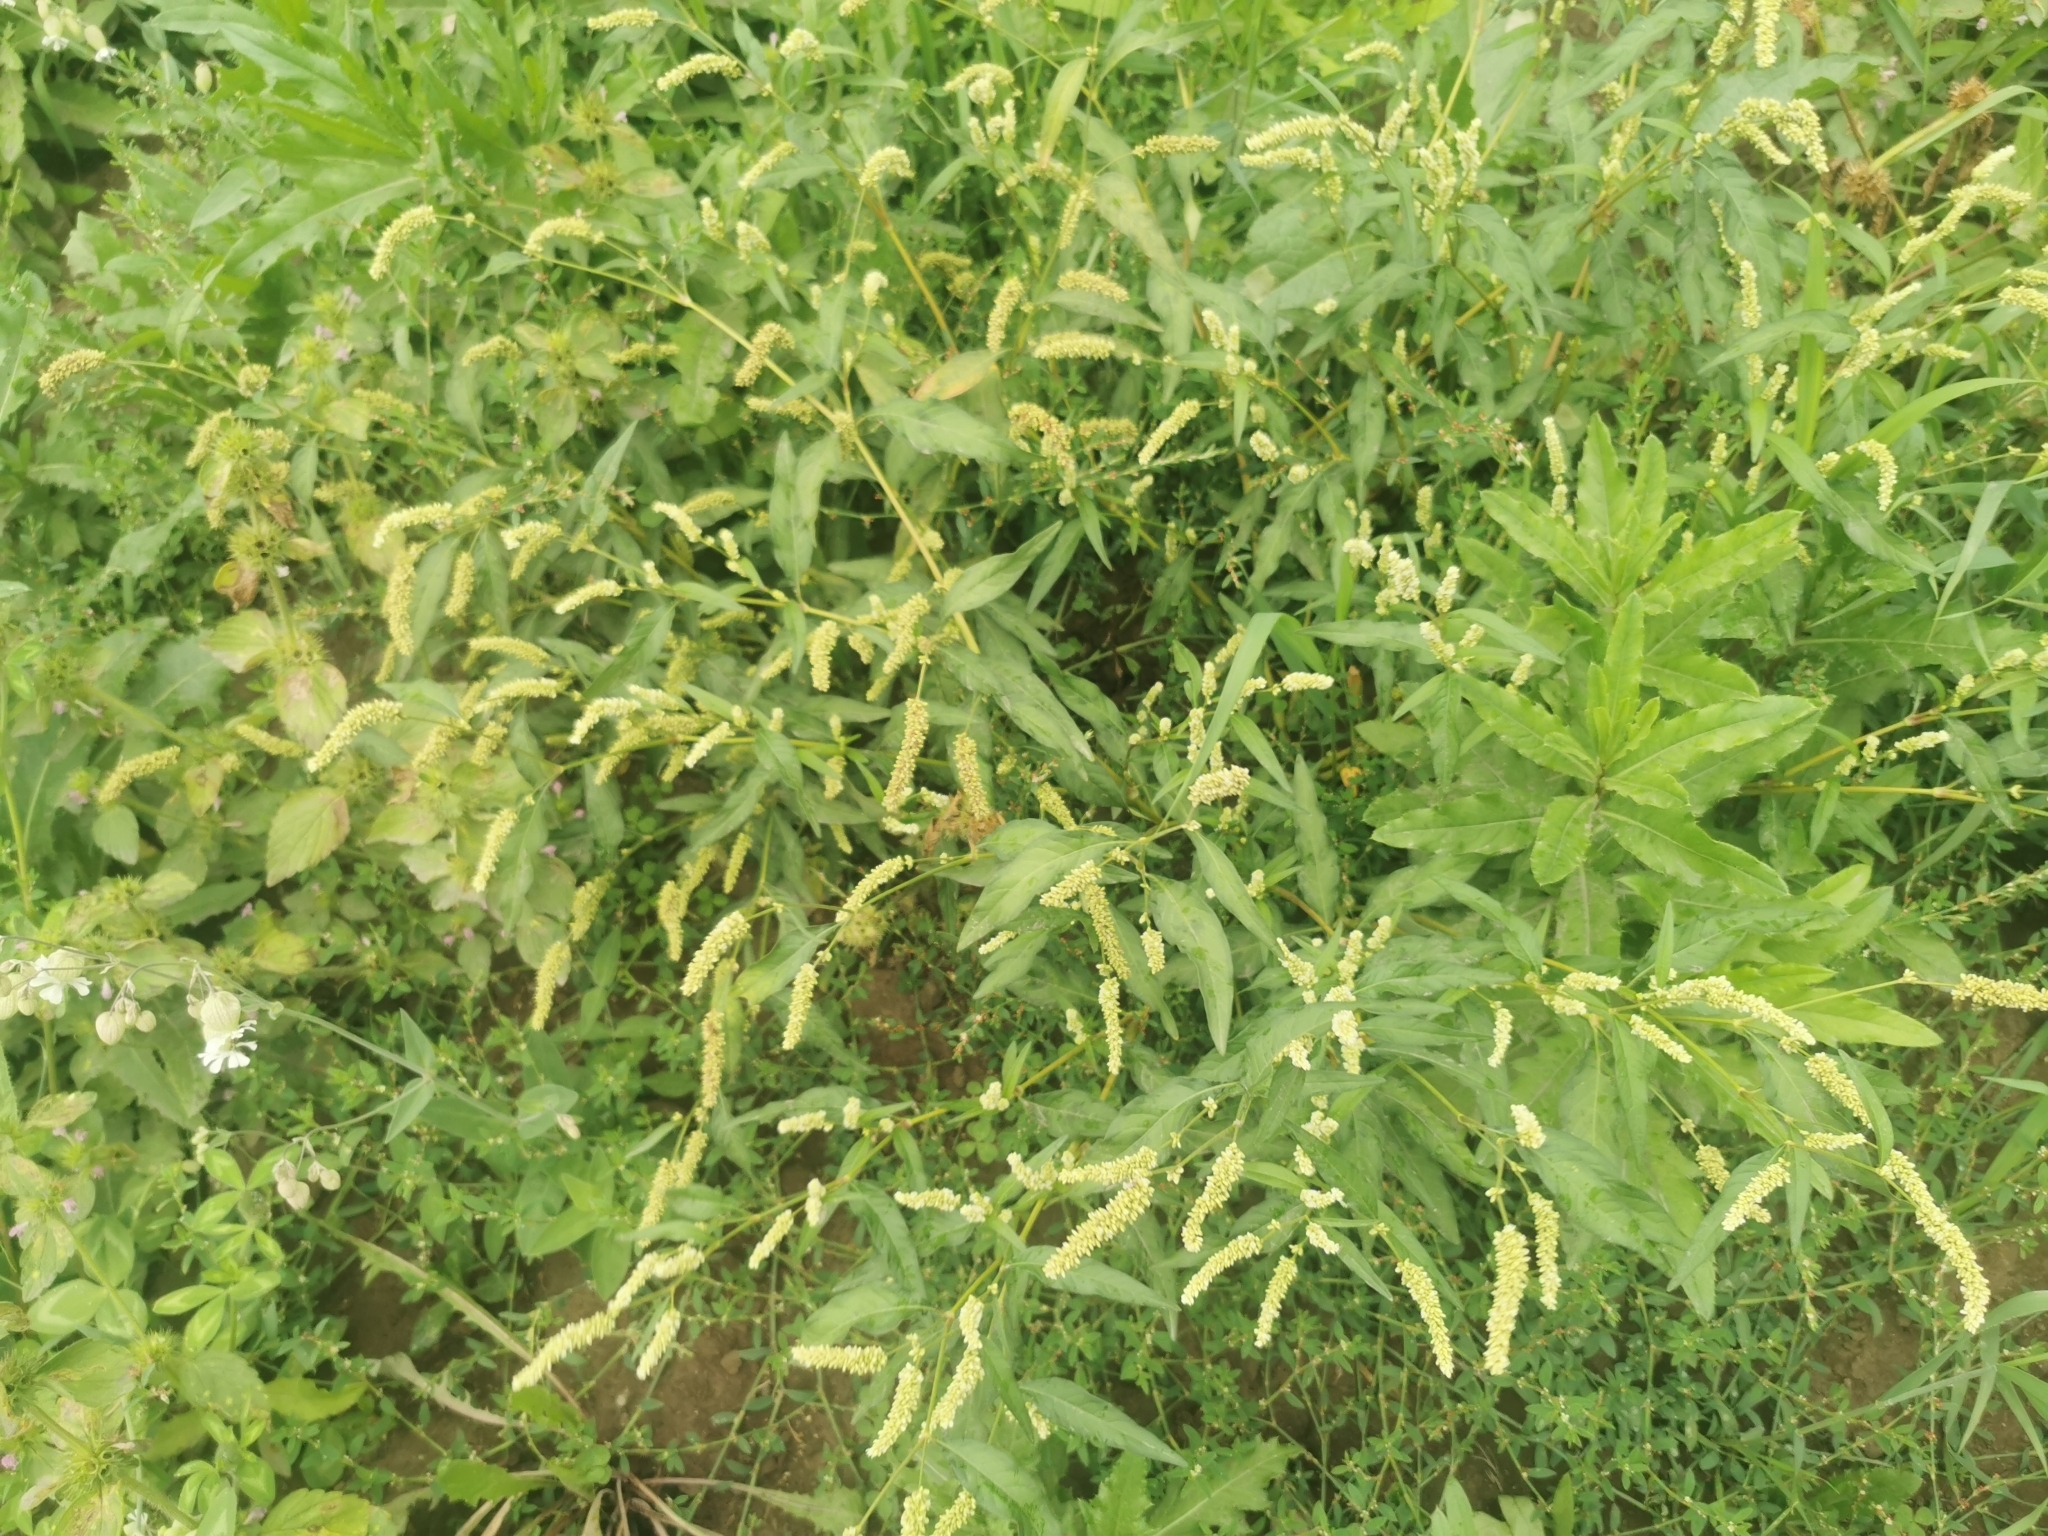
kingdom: Plantae
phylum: Tracheophyta
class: Magnoliopsida
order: Caryophyllales
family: Polygonaceae
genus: Persicaria
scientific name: Persicaria lapathifolia
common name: Curlytop knotweed
